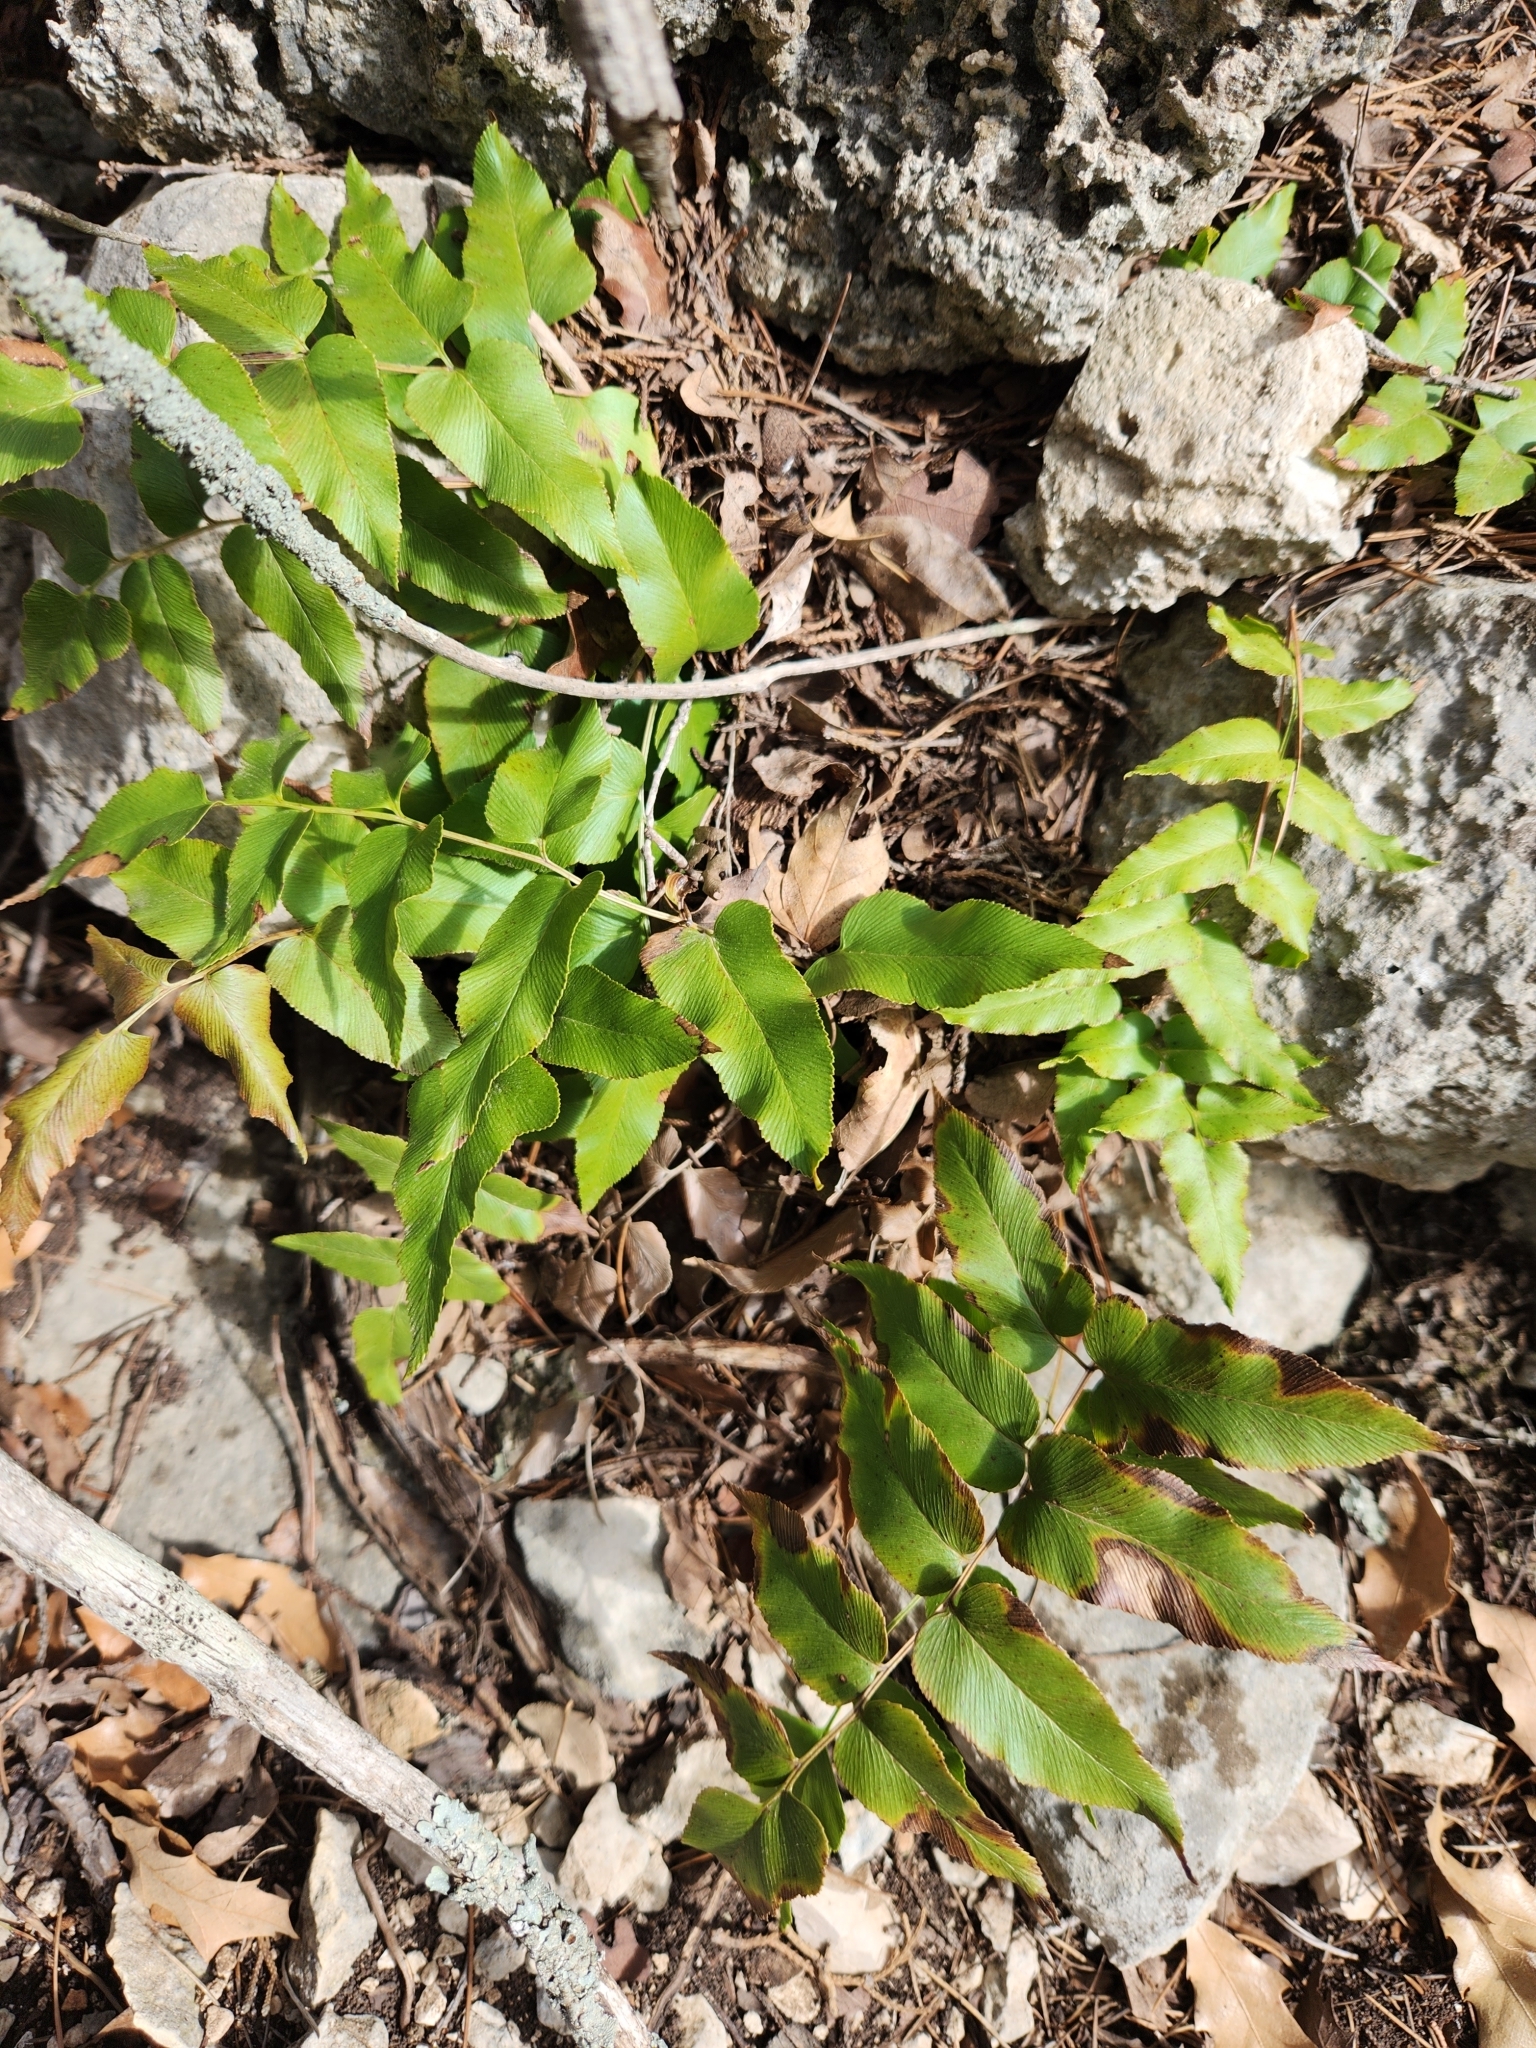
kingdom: Plantae
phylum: Tracheophyta
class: Polypodiopsida
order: Schizaeales
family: Anemiaceae
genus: Anemia
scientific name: Anemia mexicana
